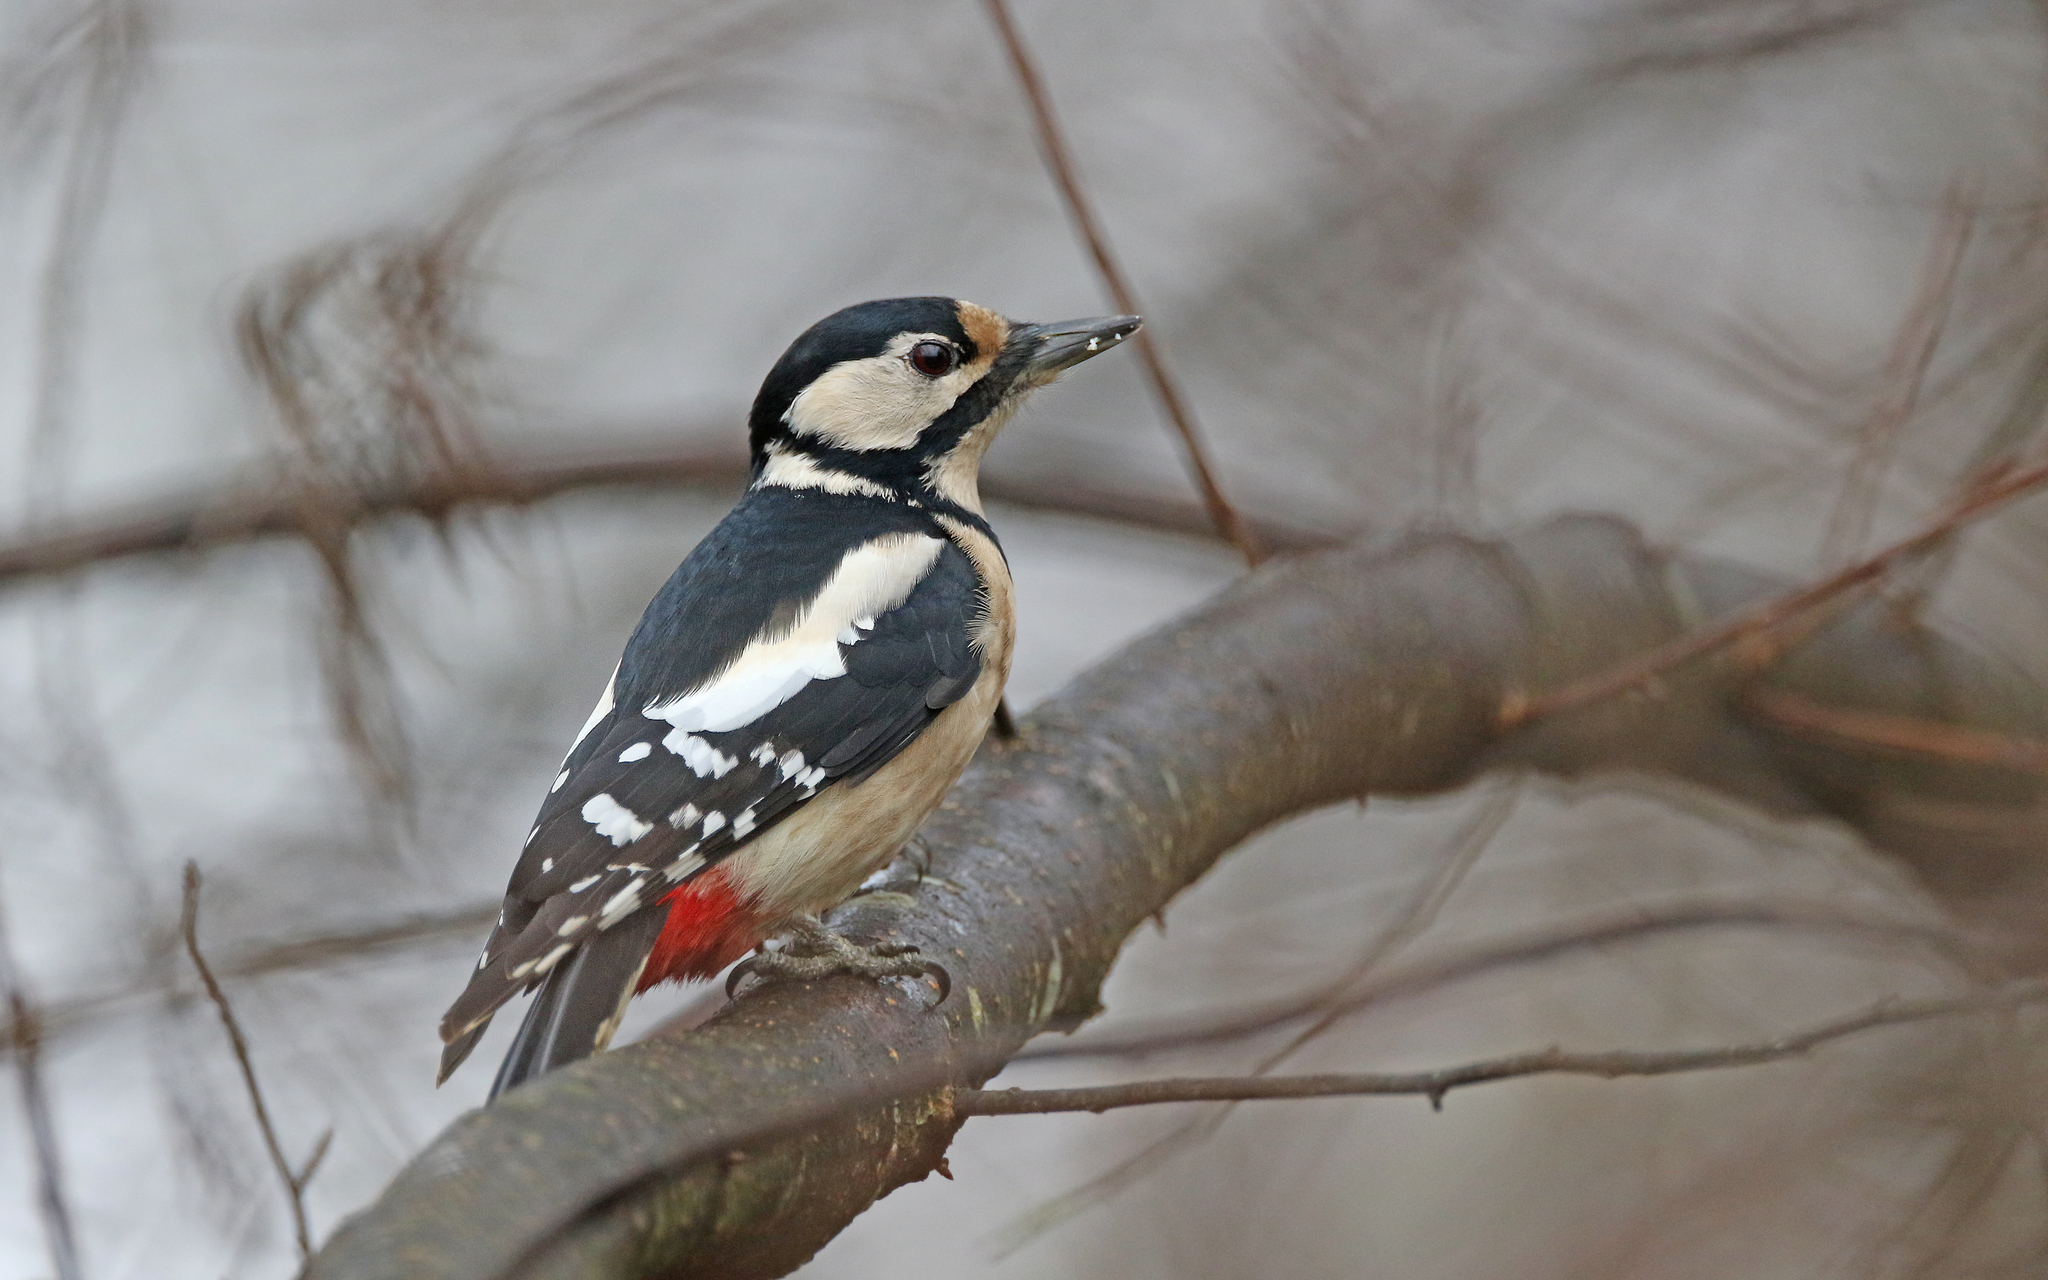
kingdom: Animalia
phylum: Chordata
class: Aves
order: Piciformes
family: Picidae
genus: Dendrocopos
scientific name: Dendrocopos major
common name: Great spotted woodpecker
